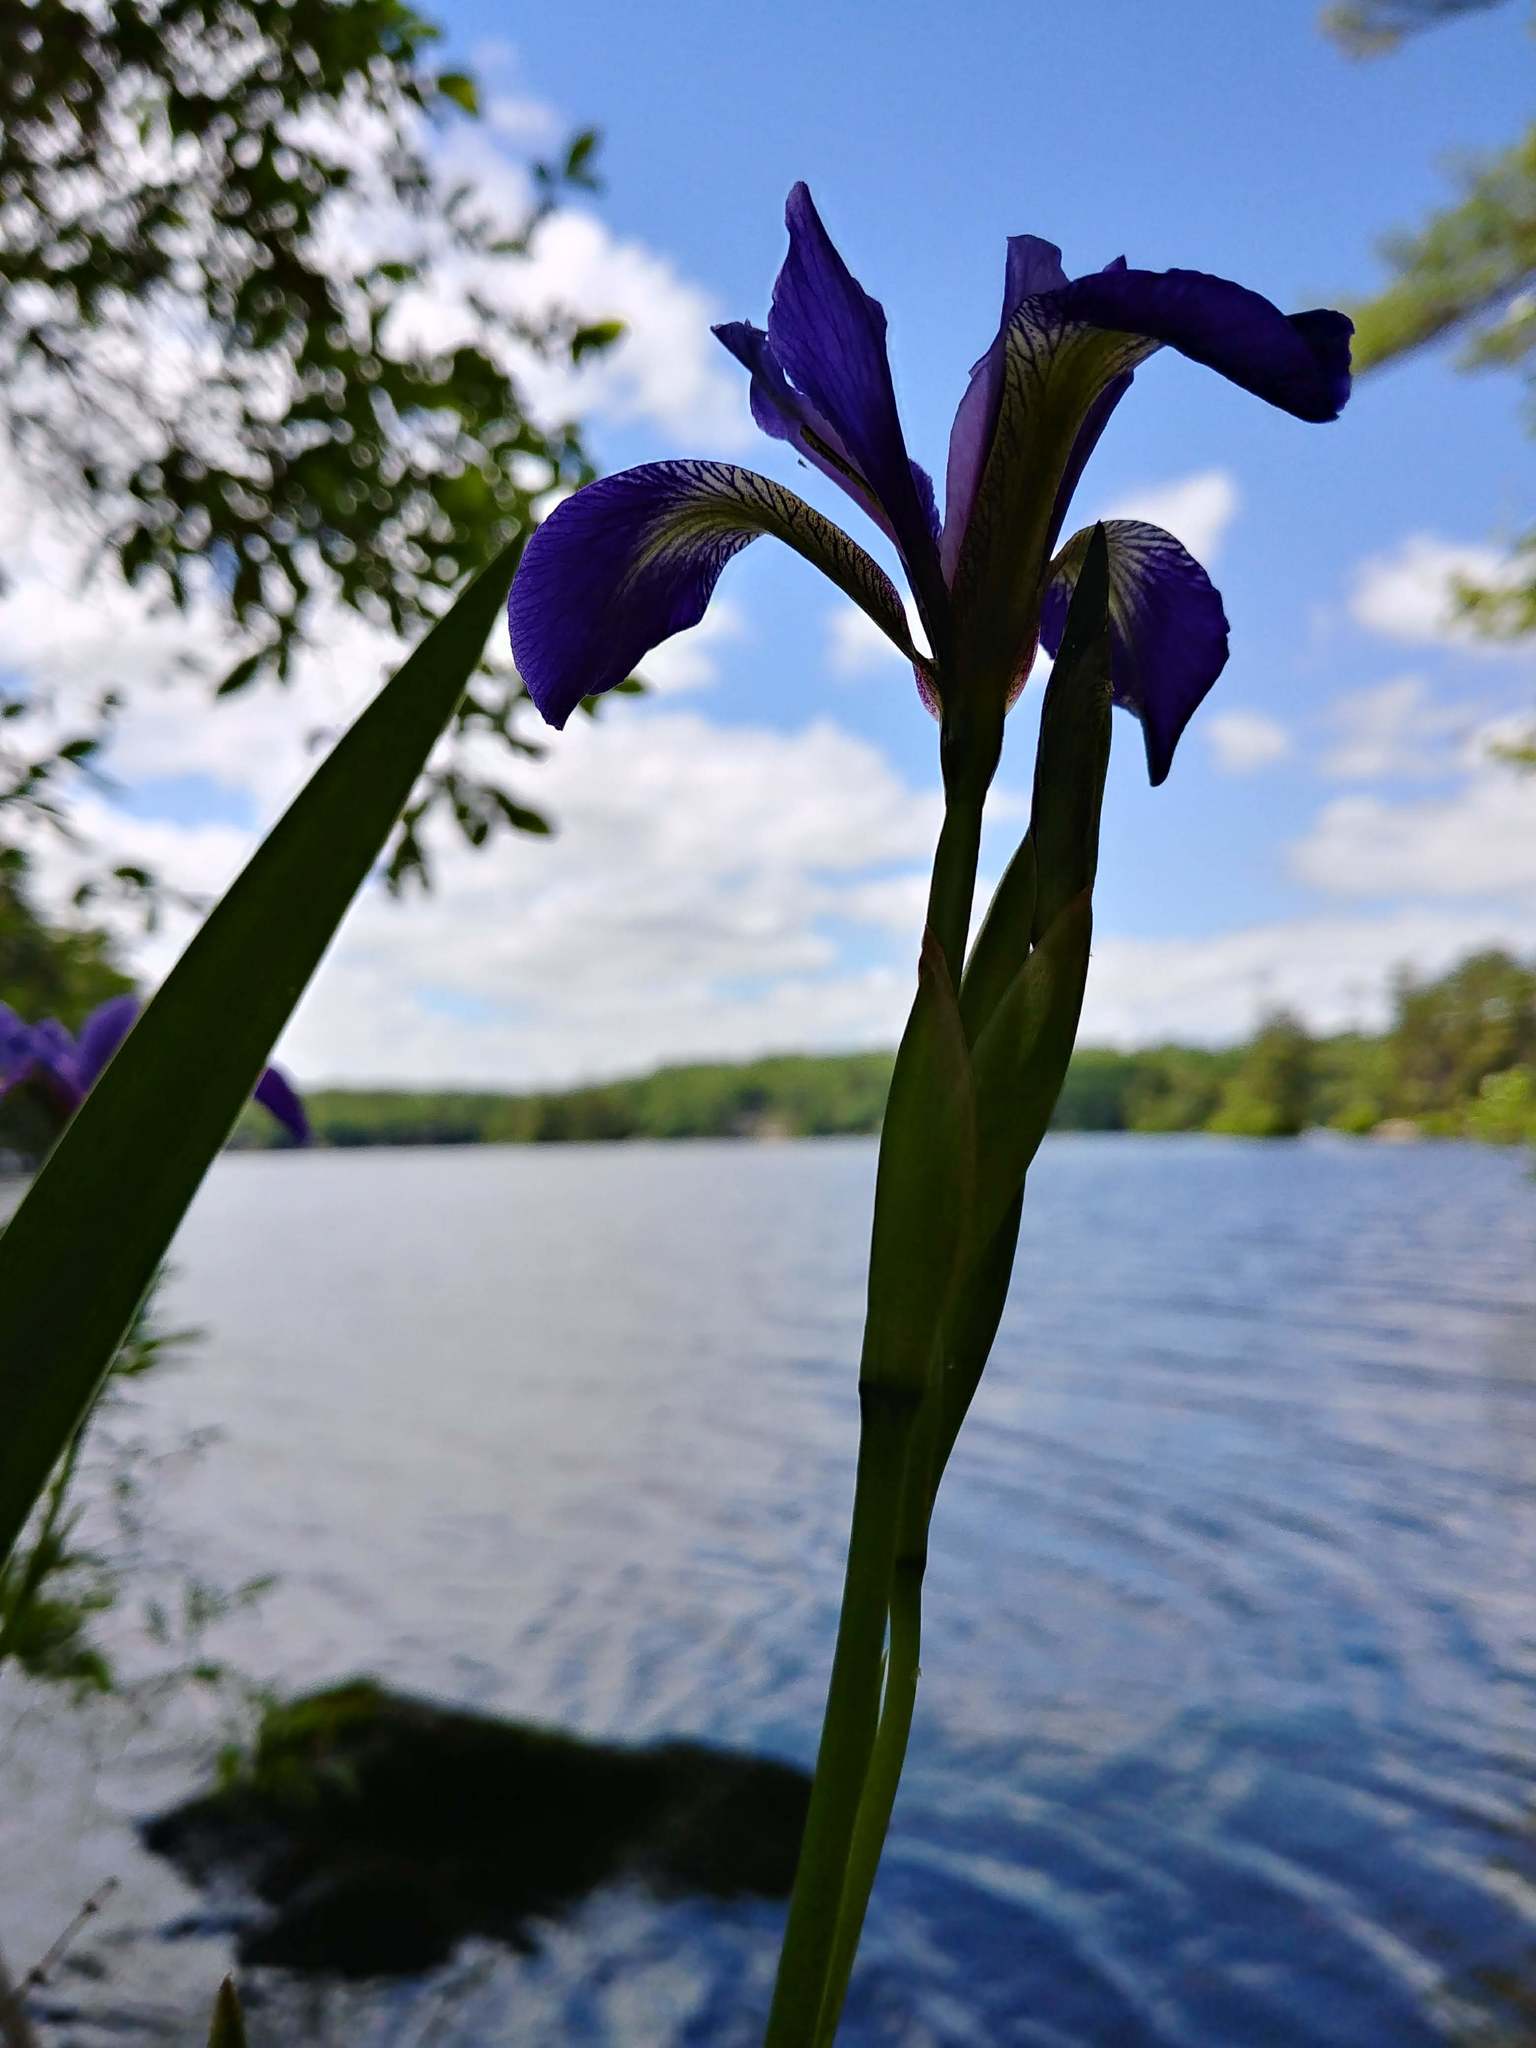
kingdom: Plantae
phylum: Tracheophyta
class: Liliopsida
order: Asparagales
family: Iridaceae
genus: Iris
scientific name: Iris versicolor
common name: Purple iris
